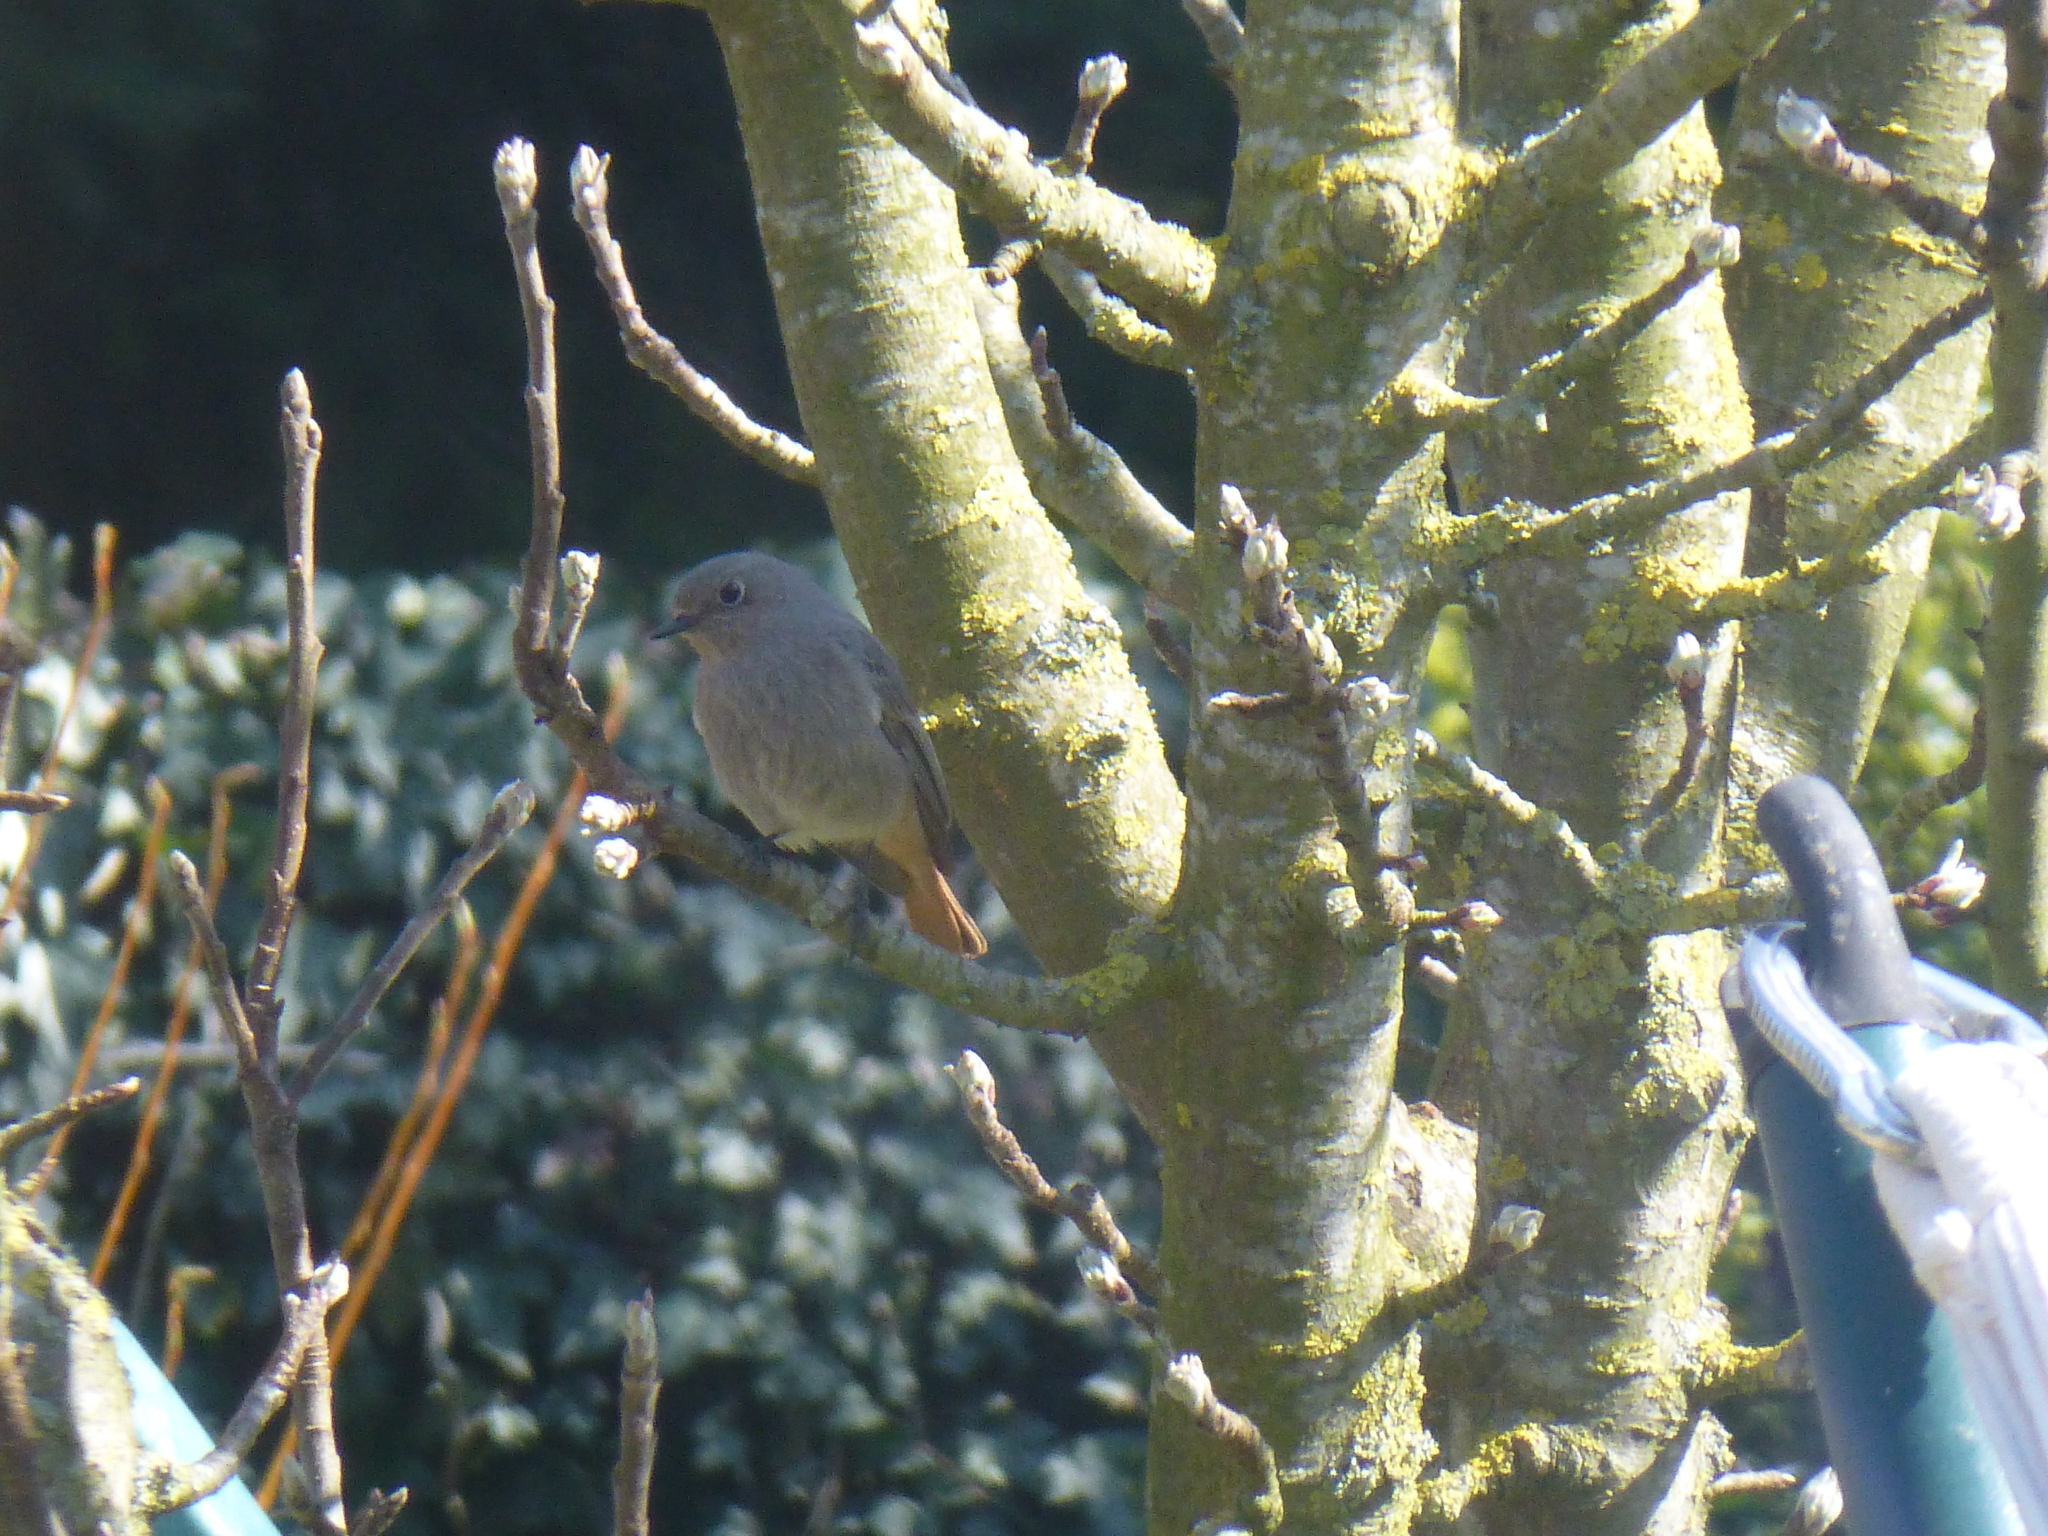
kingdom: Animalia
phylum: Chordata
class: Aves
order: Passeriformes
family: Muscicapidae
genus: Phoenicurus
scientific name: Phoenicurus ochruros
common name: Black redstart
